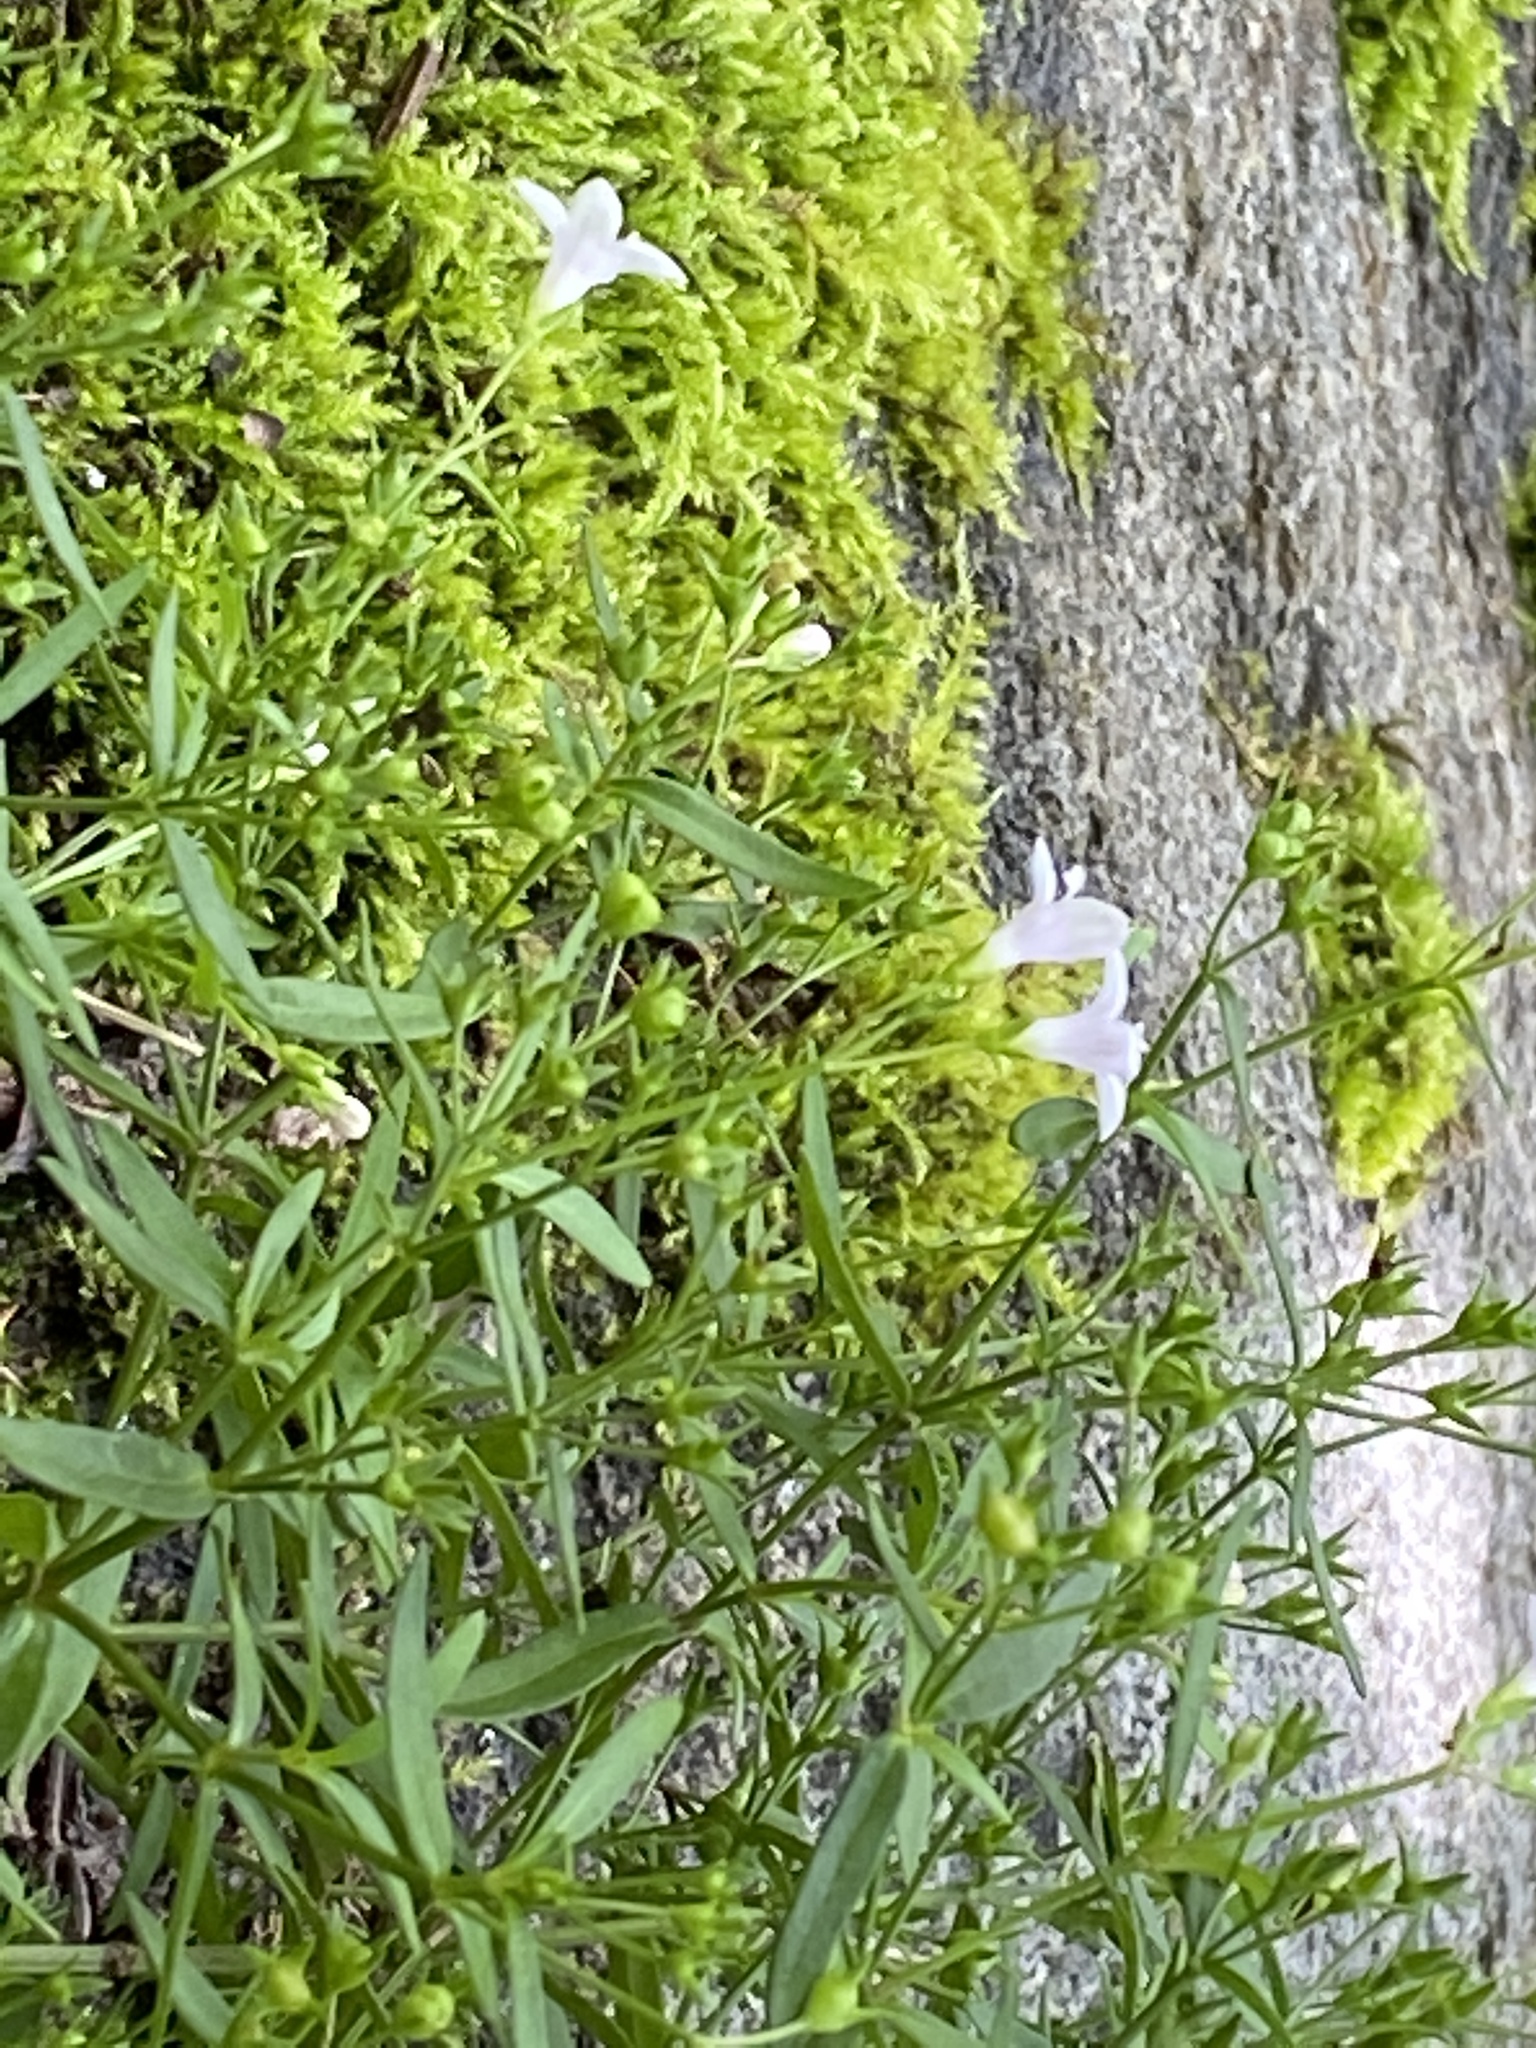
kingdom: Plantae
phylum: Tracheophyta
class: Magnoliopsida
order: Gentianales
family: Rubiaceae
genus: Houstonia
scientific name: Houstonia longifolia
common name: Long-leaved bluets
